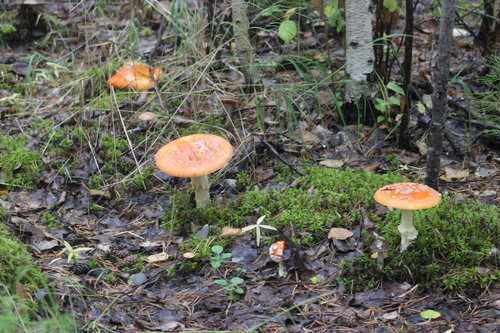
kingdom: Fungi
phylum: Basidiomycota
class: Agaricomycetes
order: Agaricales
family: Amanitaceae
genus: Amanita
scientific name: Amanita muscaria
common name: Fly agaric
